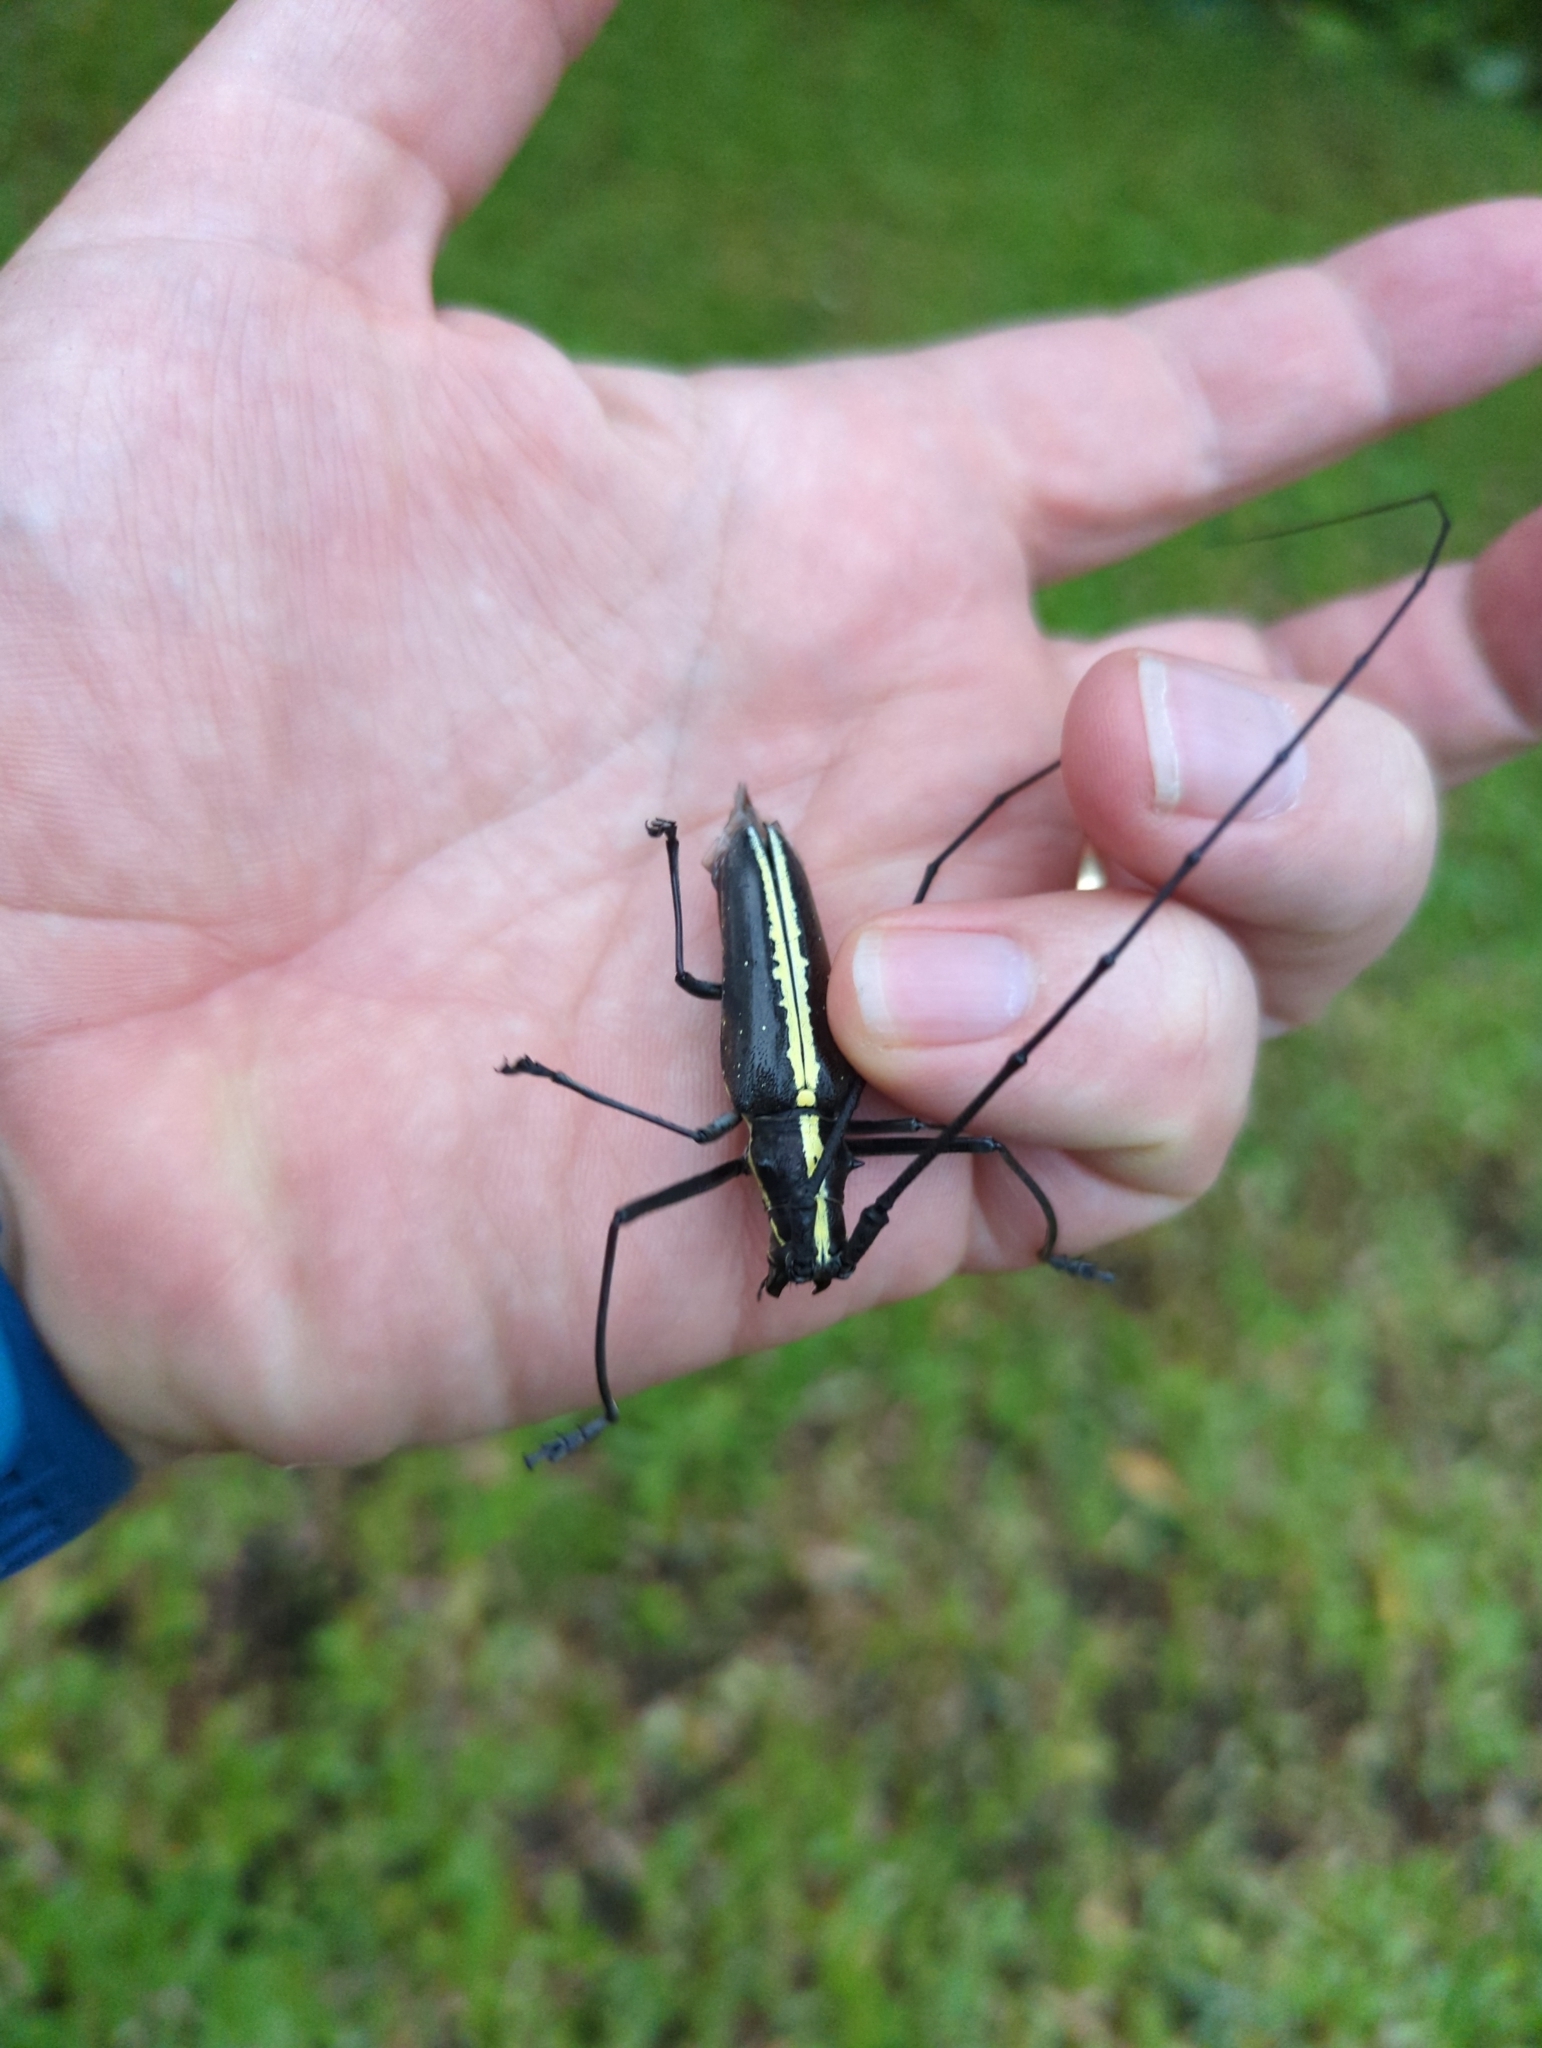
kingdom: Animalia
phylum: Arthropoda
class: Insecta
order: Coleoptera
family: Cerambycidae
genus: Taeniotes
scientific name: Taeniotes scalatus
